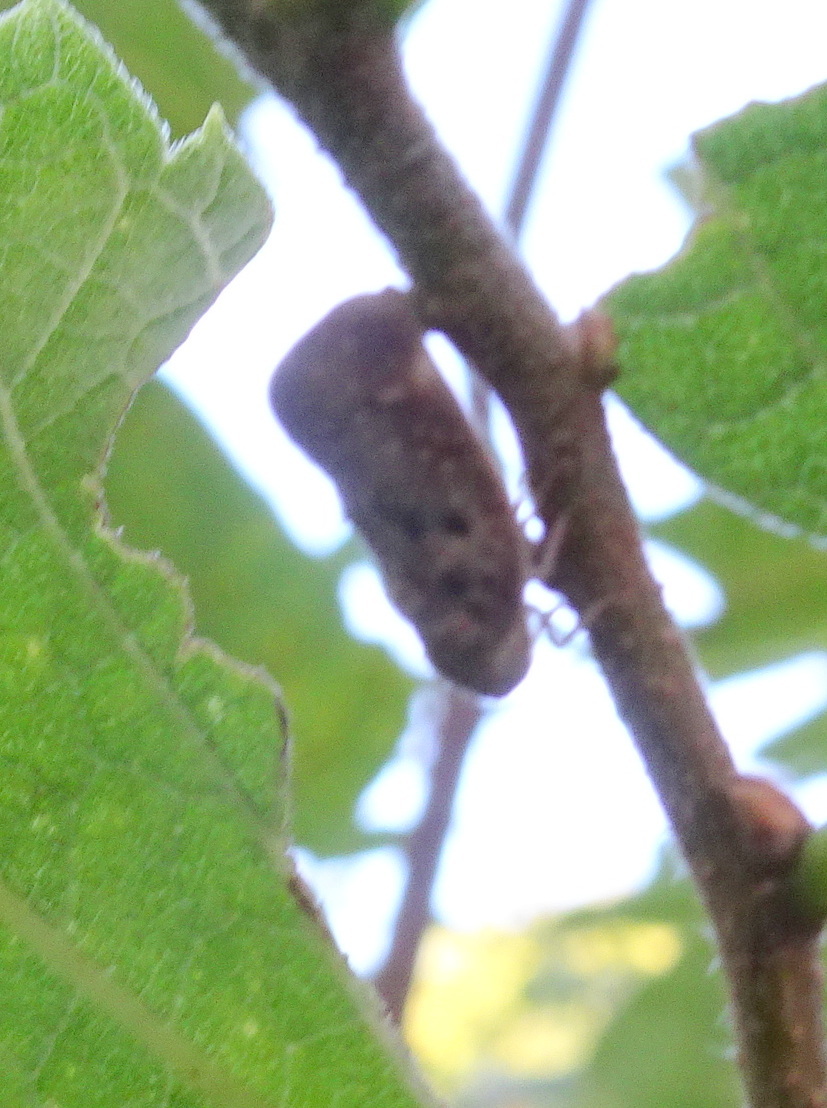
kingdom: Animalia
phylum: Arthropoda
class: Insecta
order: Hemiptera
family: Flatidae
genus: Metcalfa
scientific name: Metcalfa pruinosa
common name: Citrus flatid planthopper
